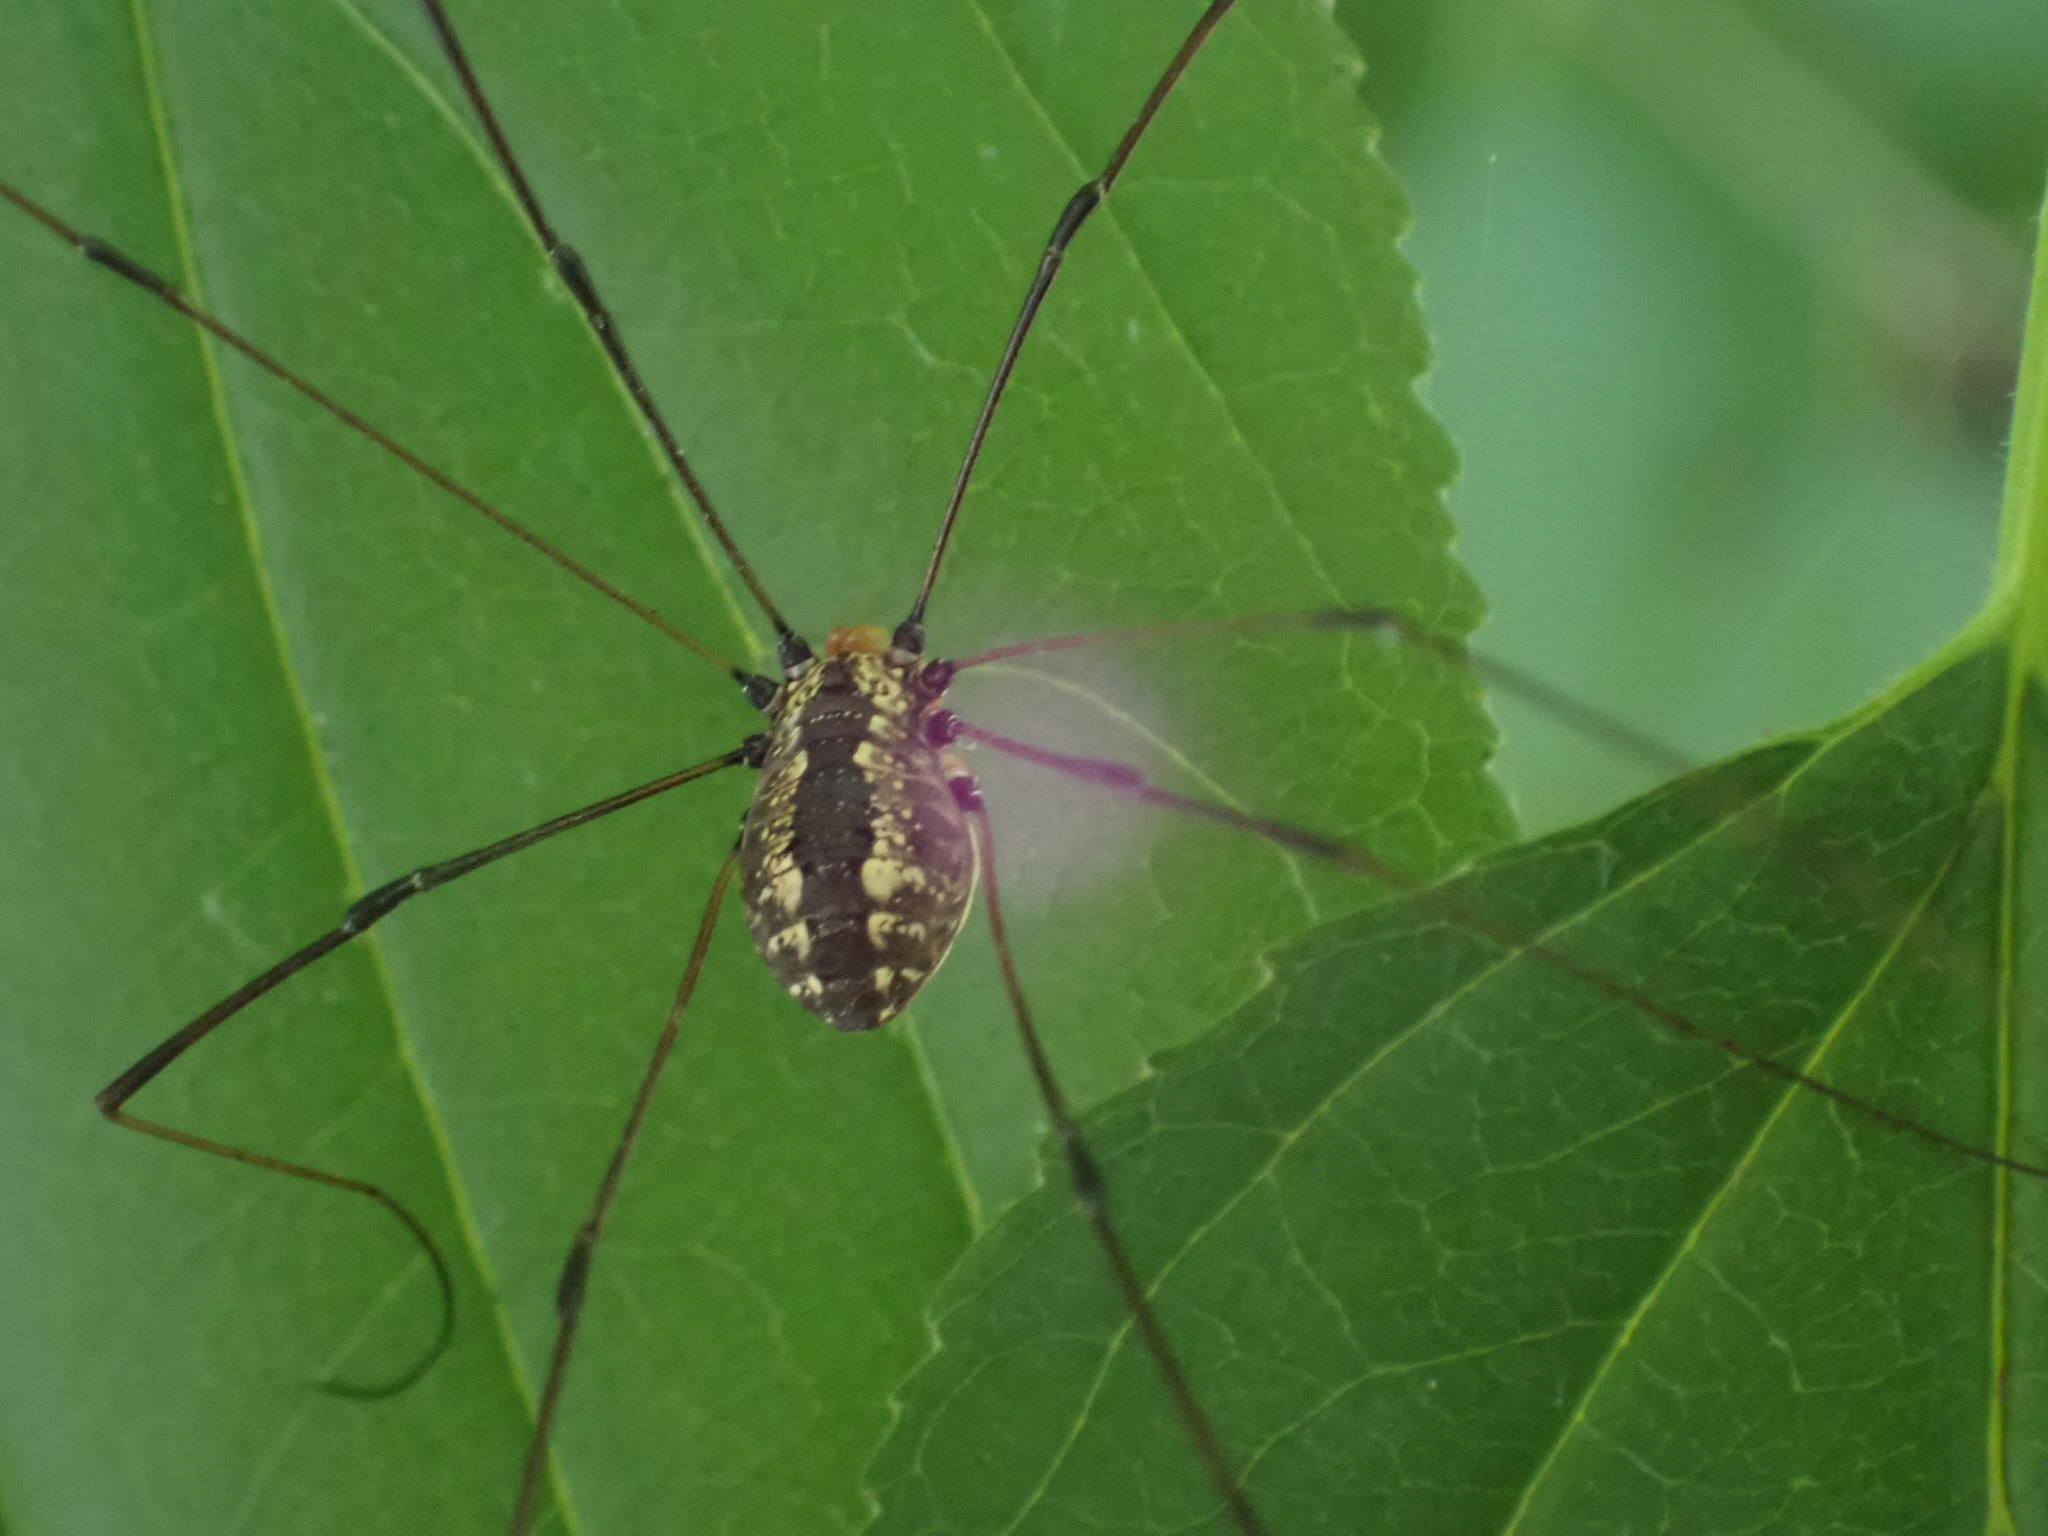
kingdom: Animalia
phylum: Arthropoda
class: Arachnida
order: Opiliones
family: Sclerosomatidae
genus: Leiobunum
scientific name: Leiobunum vittatum
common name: Eastern harvestman
